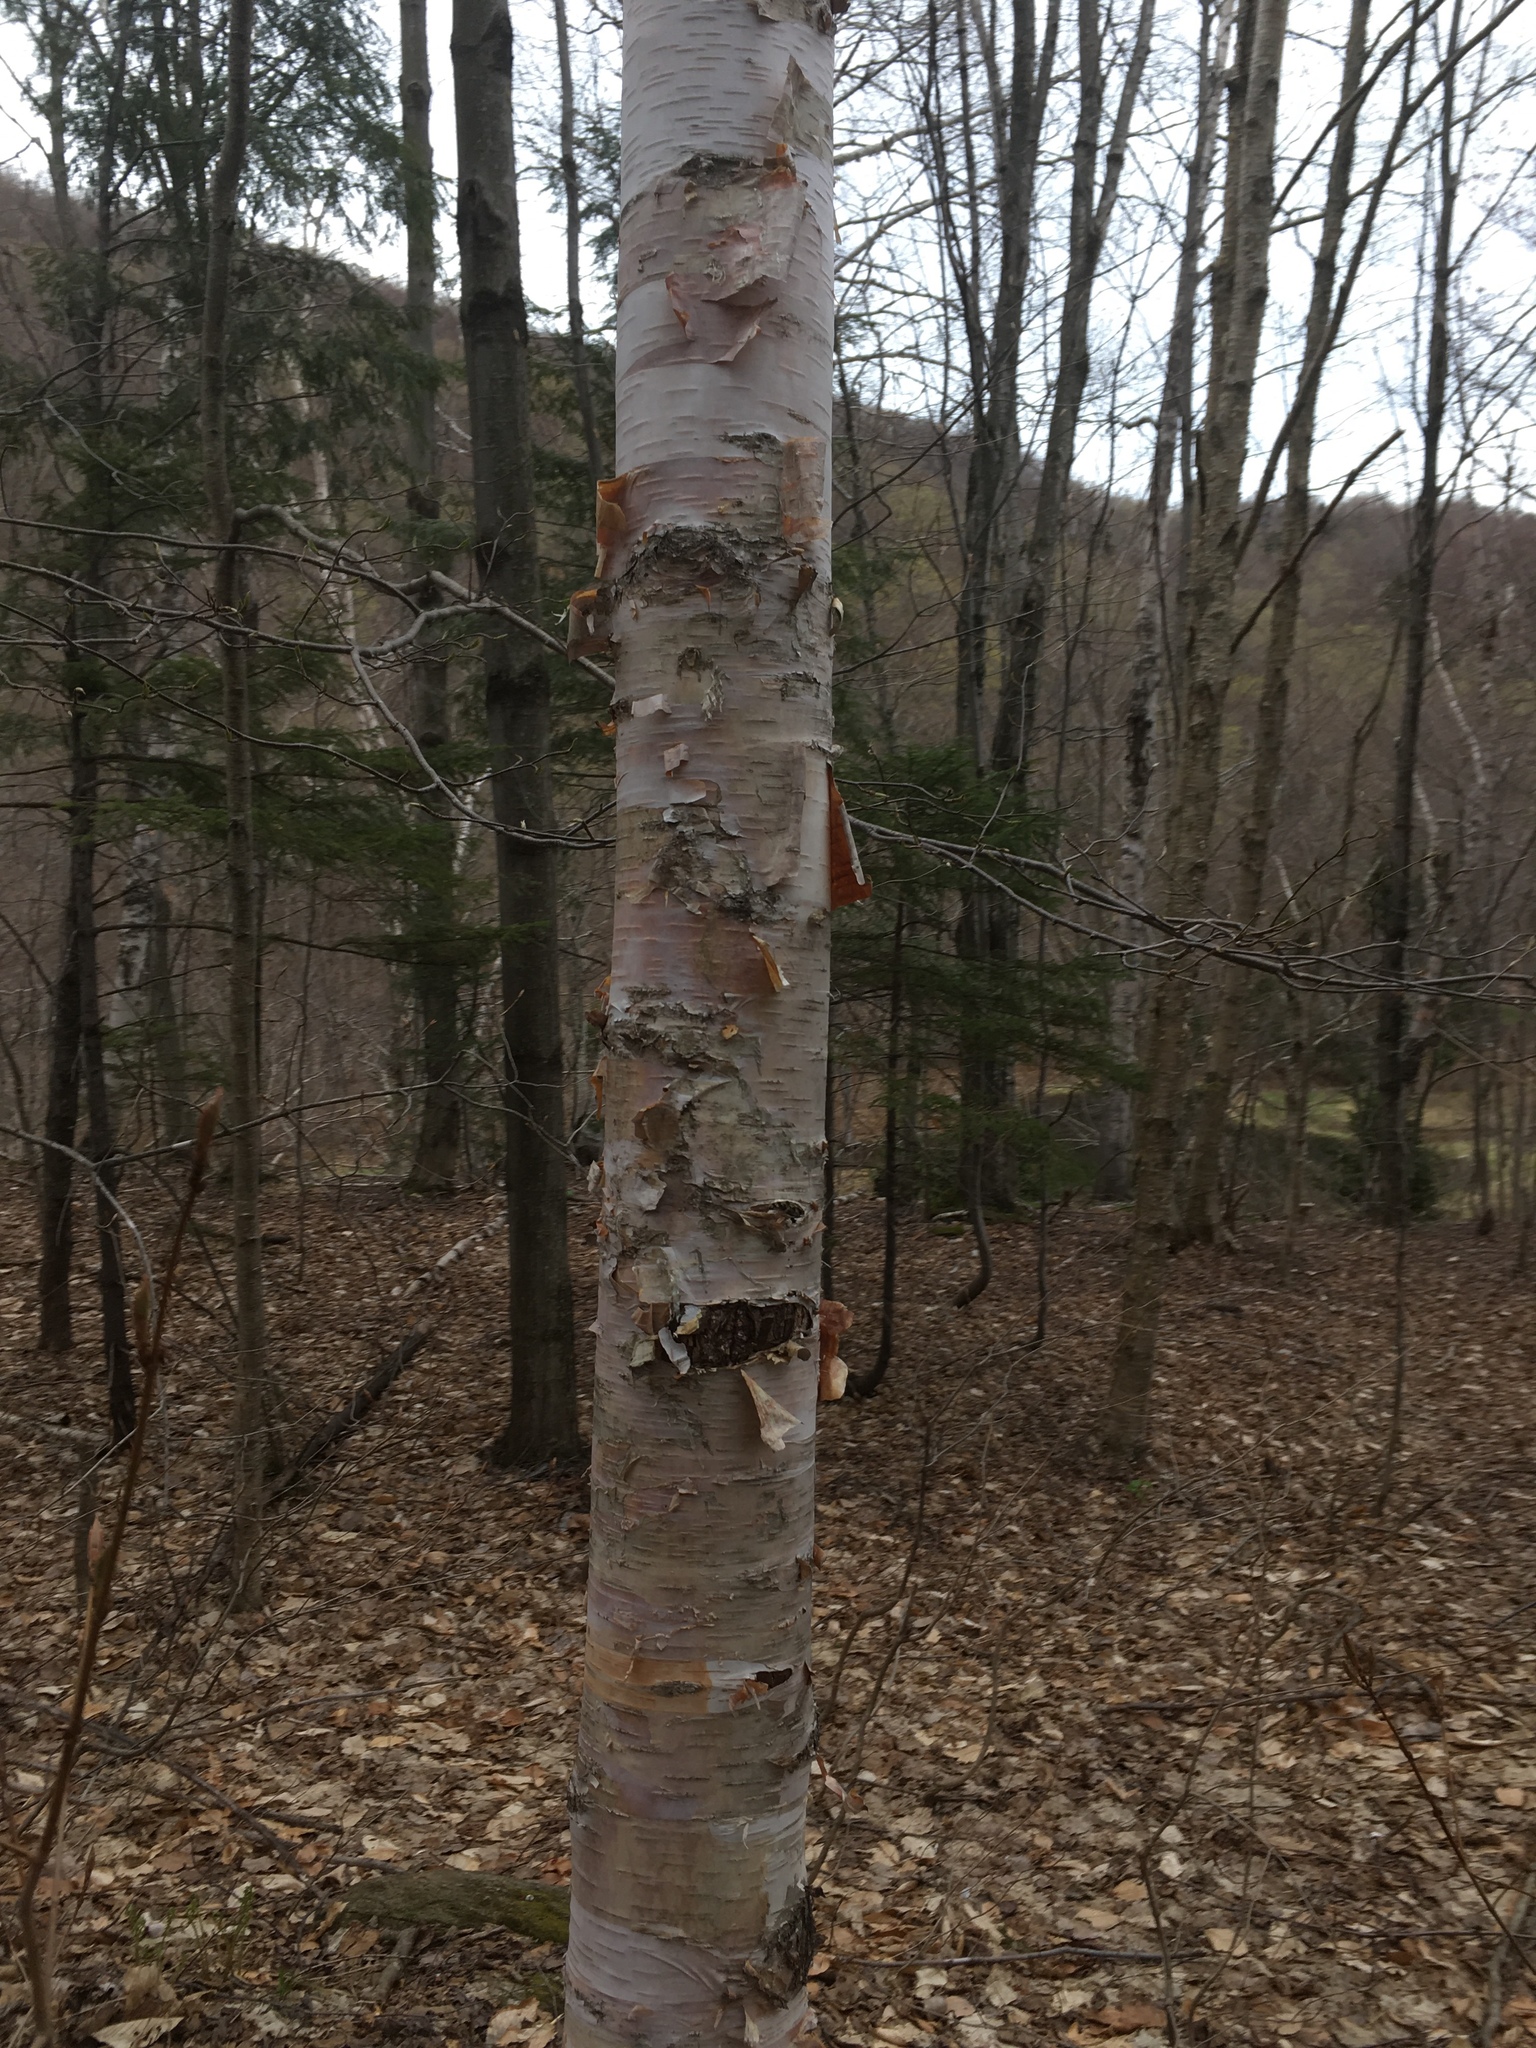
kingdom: Plantae
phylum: Tracheophyta
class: Magnoliopsida
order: Fagales
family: Betulaceae
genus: Betula
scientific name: Betula cordifolia
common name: Mountain white birch
